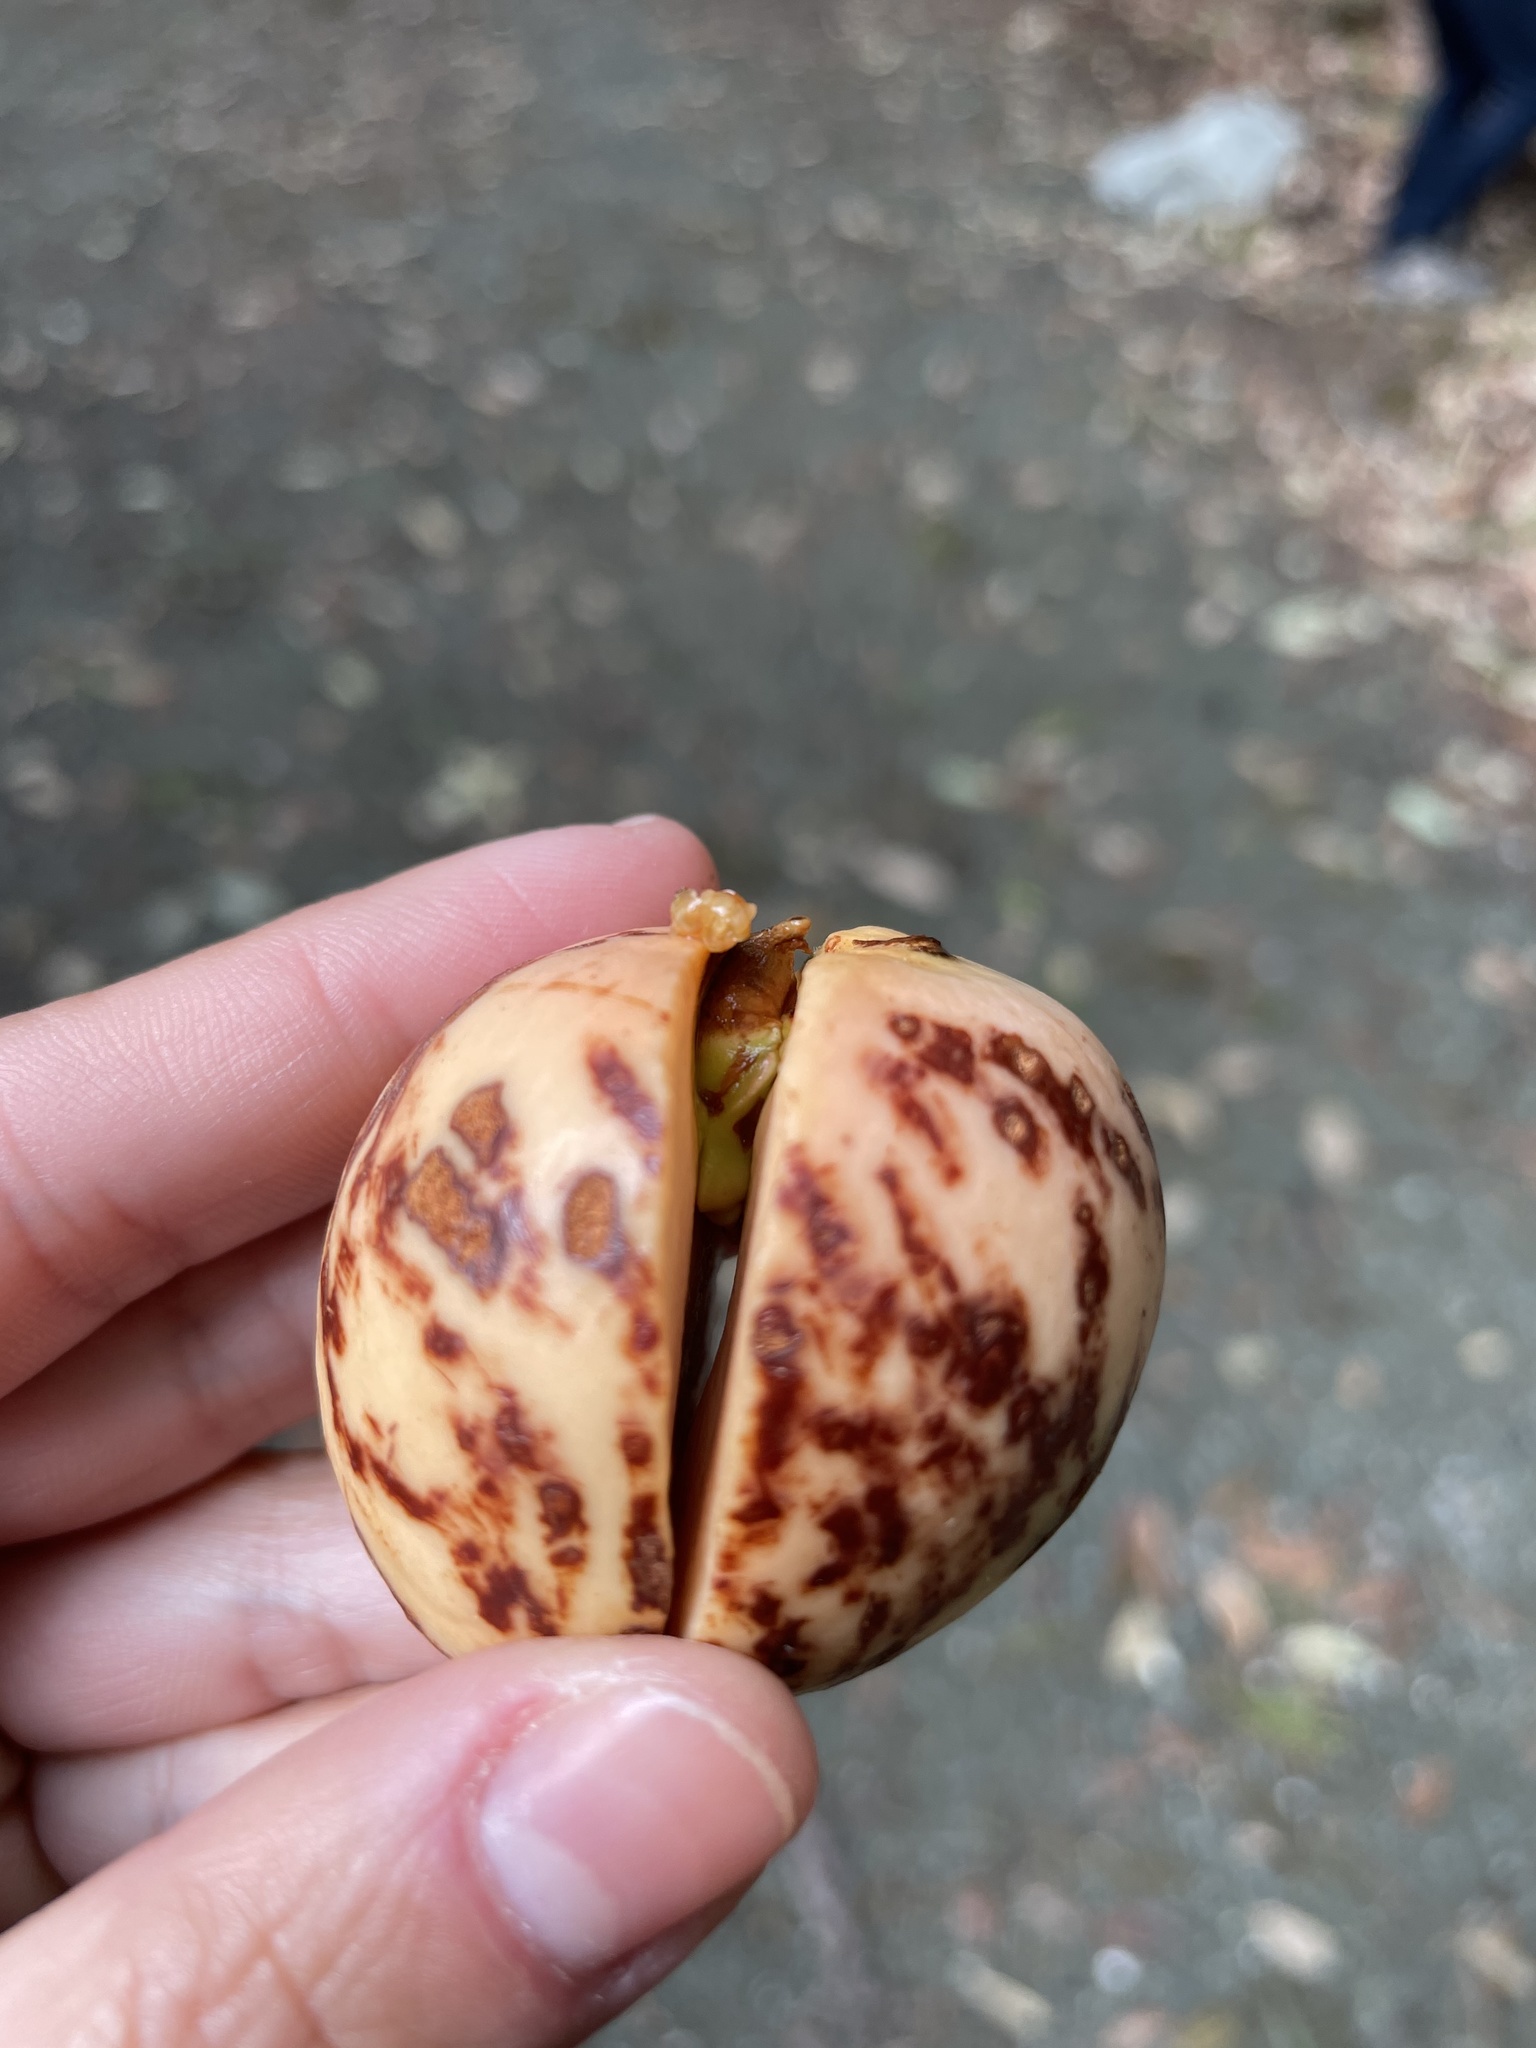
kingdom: Plantae
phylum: Tracheophyta
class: Magnoliopsida
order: Sapindales
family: Sapindaceae
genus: Aesculus
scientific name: Aesculus californica
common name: California buckeye
